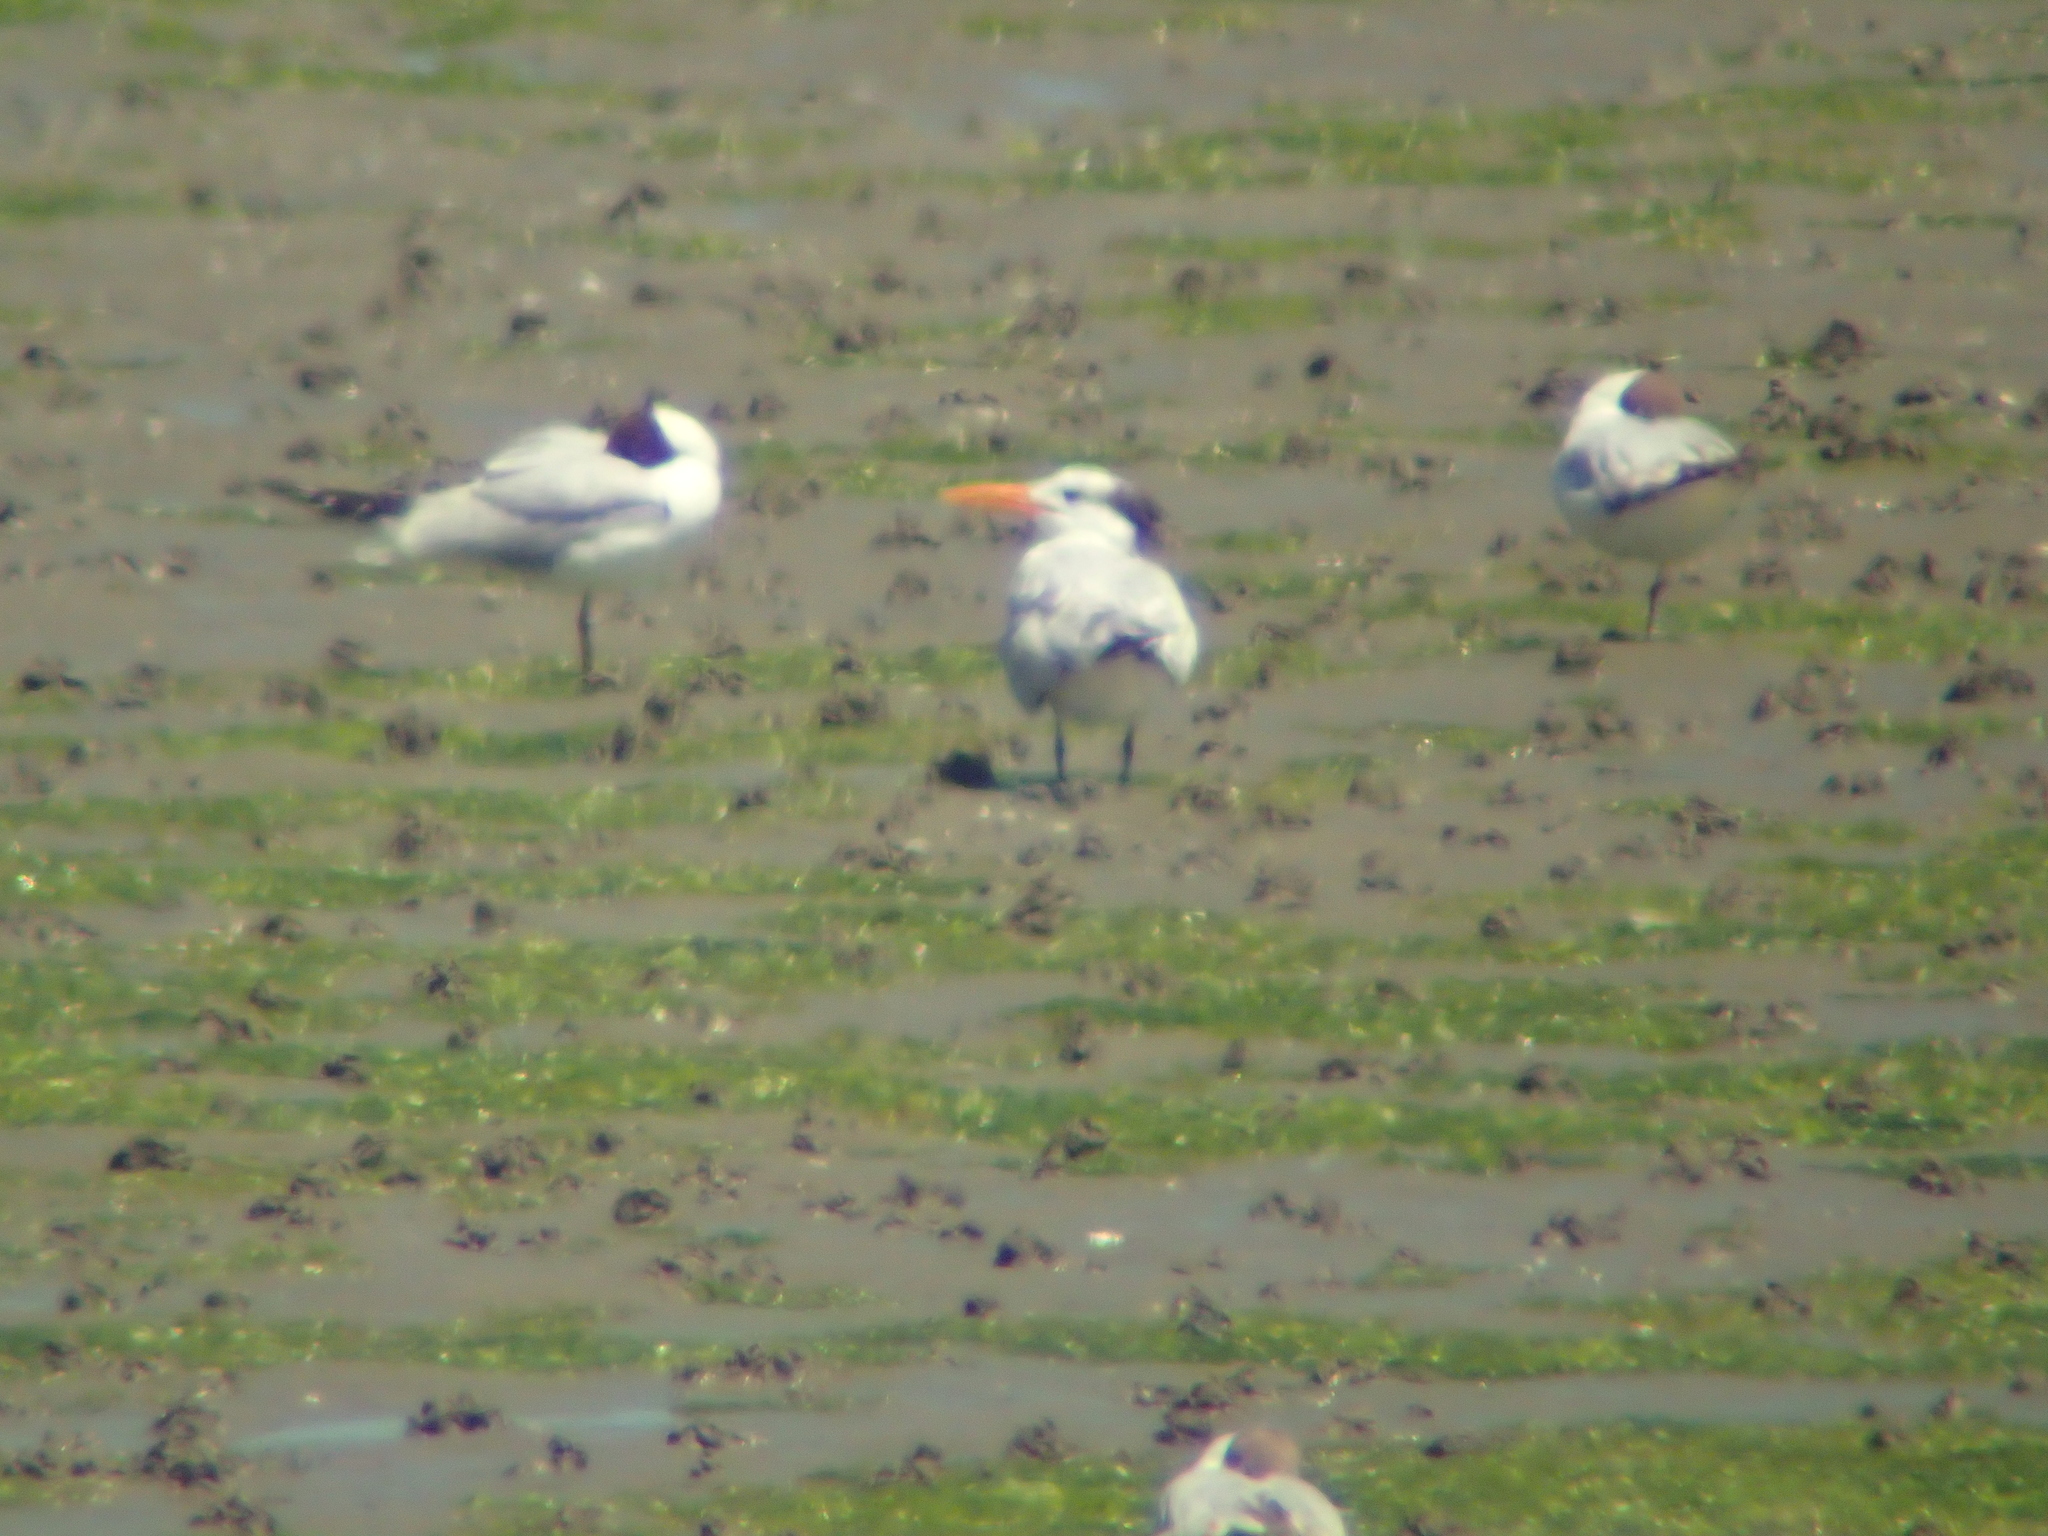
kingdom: Animalia
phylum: Chordata
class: Aves
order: Charadriiformes
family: Laridae
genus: Thalasseus
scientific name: Thalasseus maximus
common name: Royal tern
